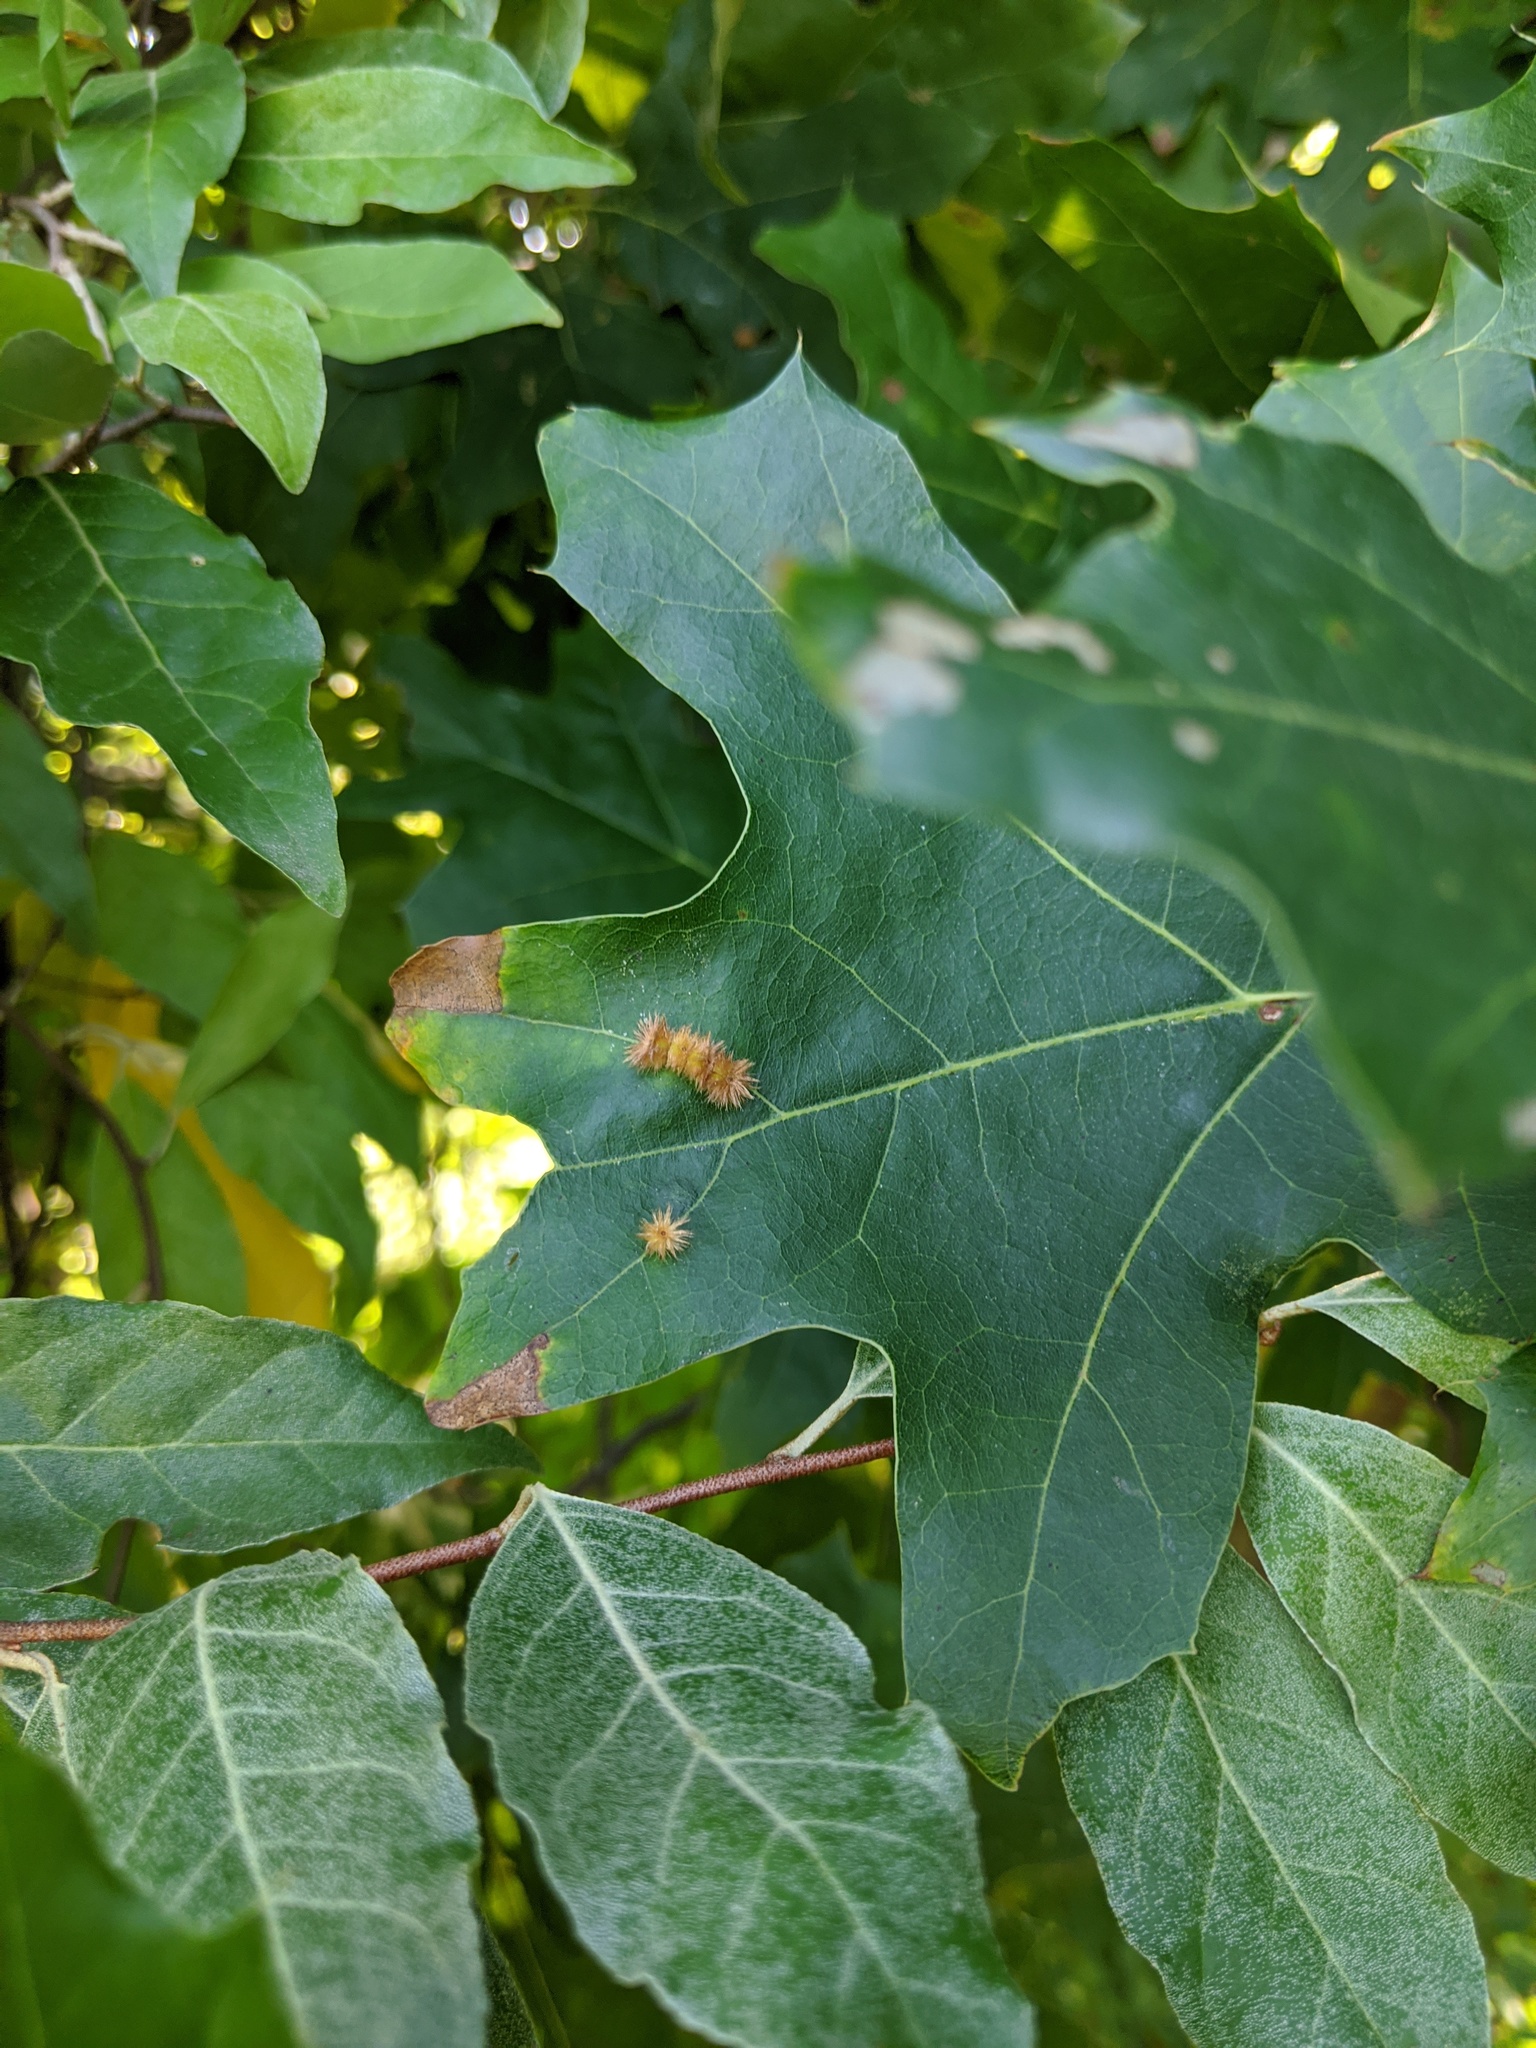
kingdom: Animalia
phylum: Arthropoda
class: Insecta
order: Hymenoptera
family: Cynipidae
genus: Callirhytis
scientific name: Callirhytis
